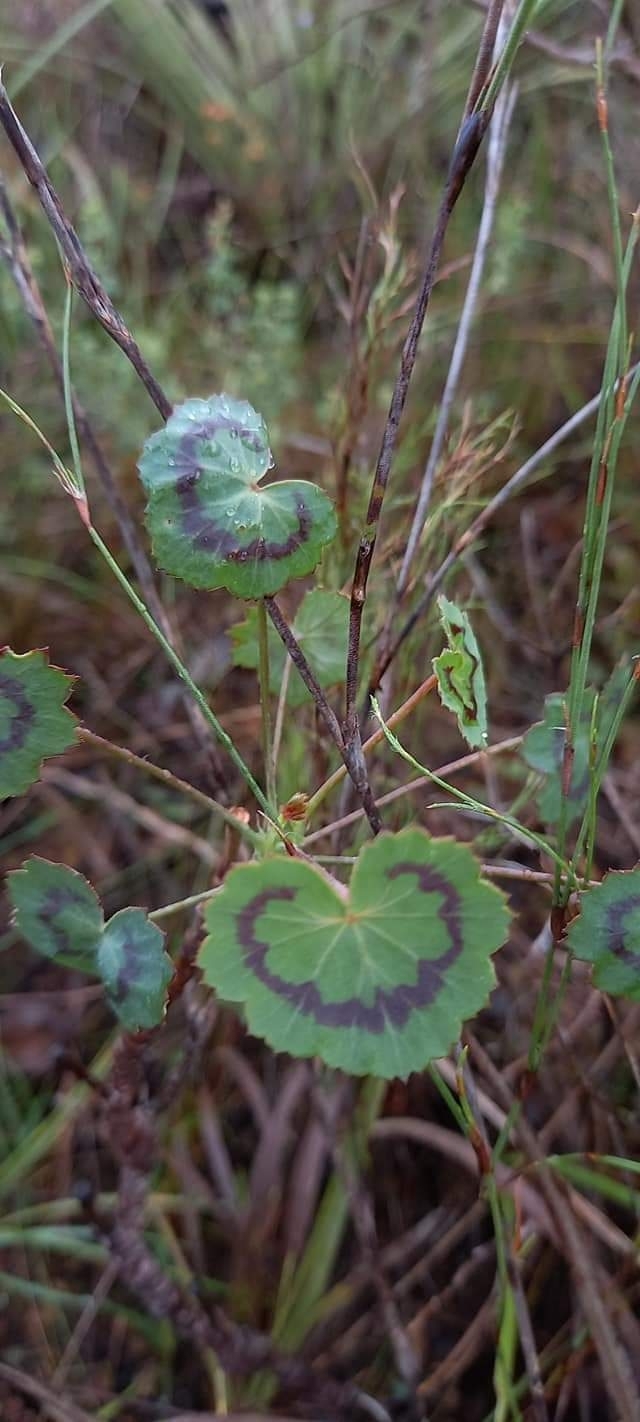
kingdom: Plantae
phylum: Tracheophyta
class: Magnoliopsida
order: Geraniales
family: Geraniaceae
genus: Pelargonium
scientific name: Pelargonium tabulare
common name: Table mountain pelargonium
